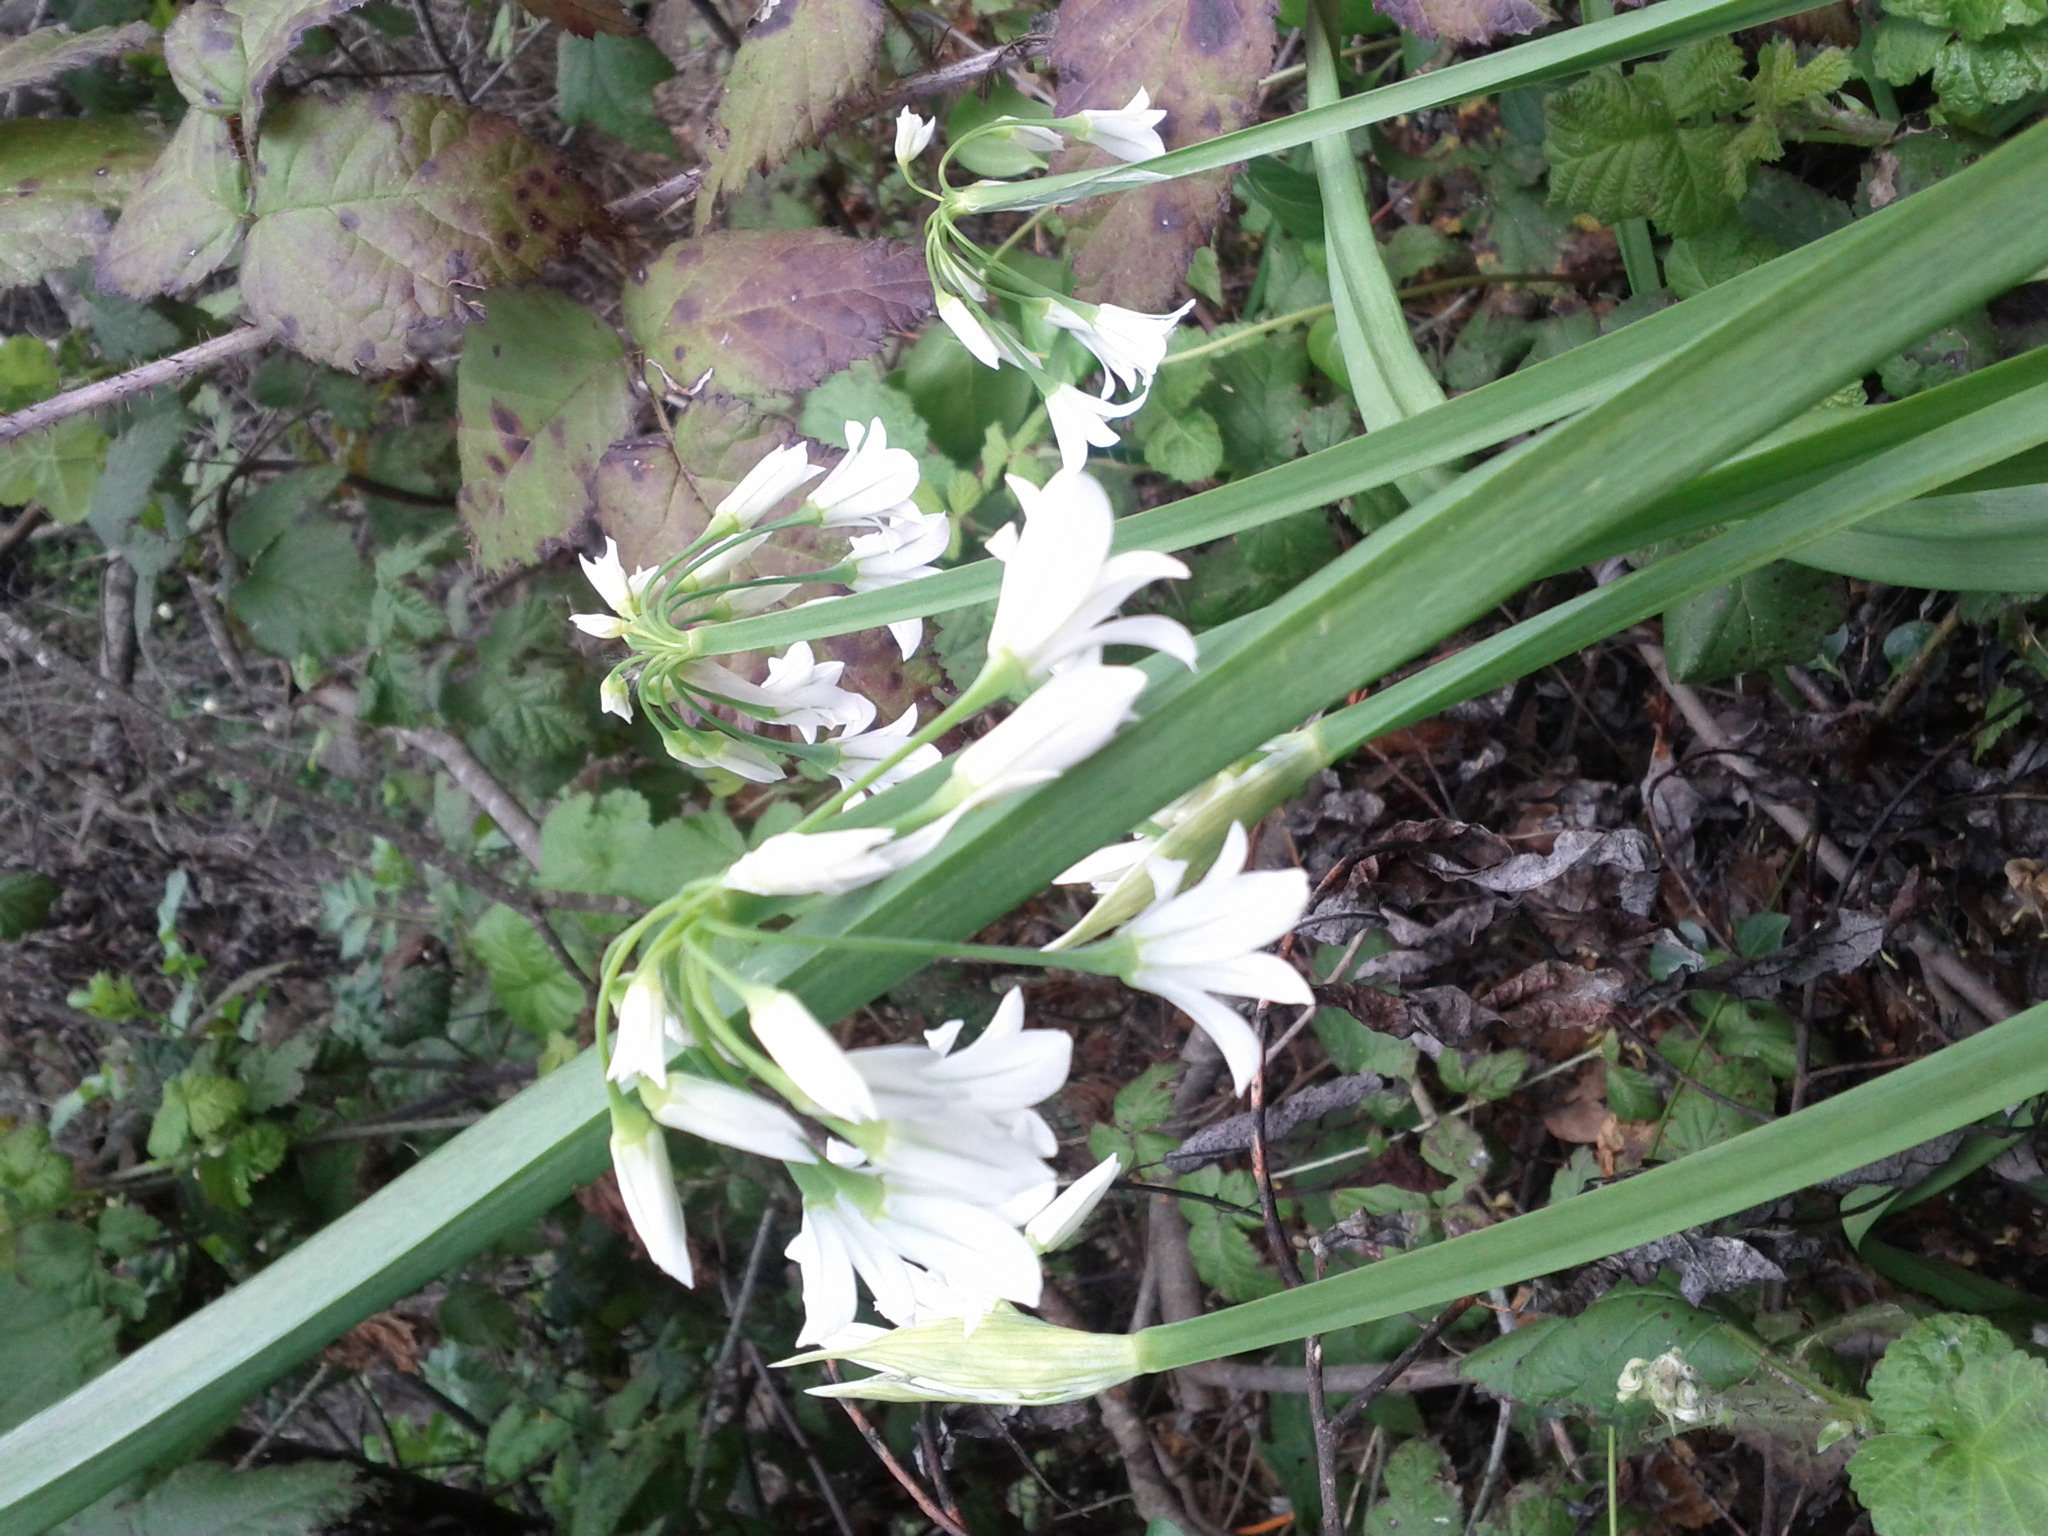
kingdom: Plantae
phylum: Tracheophyta
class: Liliopsida
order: Asparagales
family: Amaryllidaceae
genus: Allium
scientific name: Allium triquetrum
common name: Three-cornered garlic
